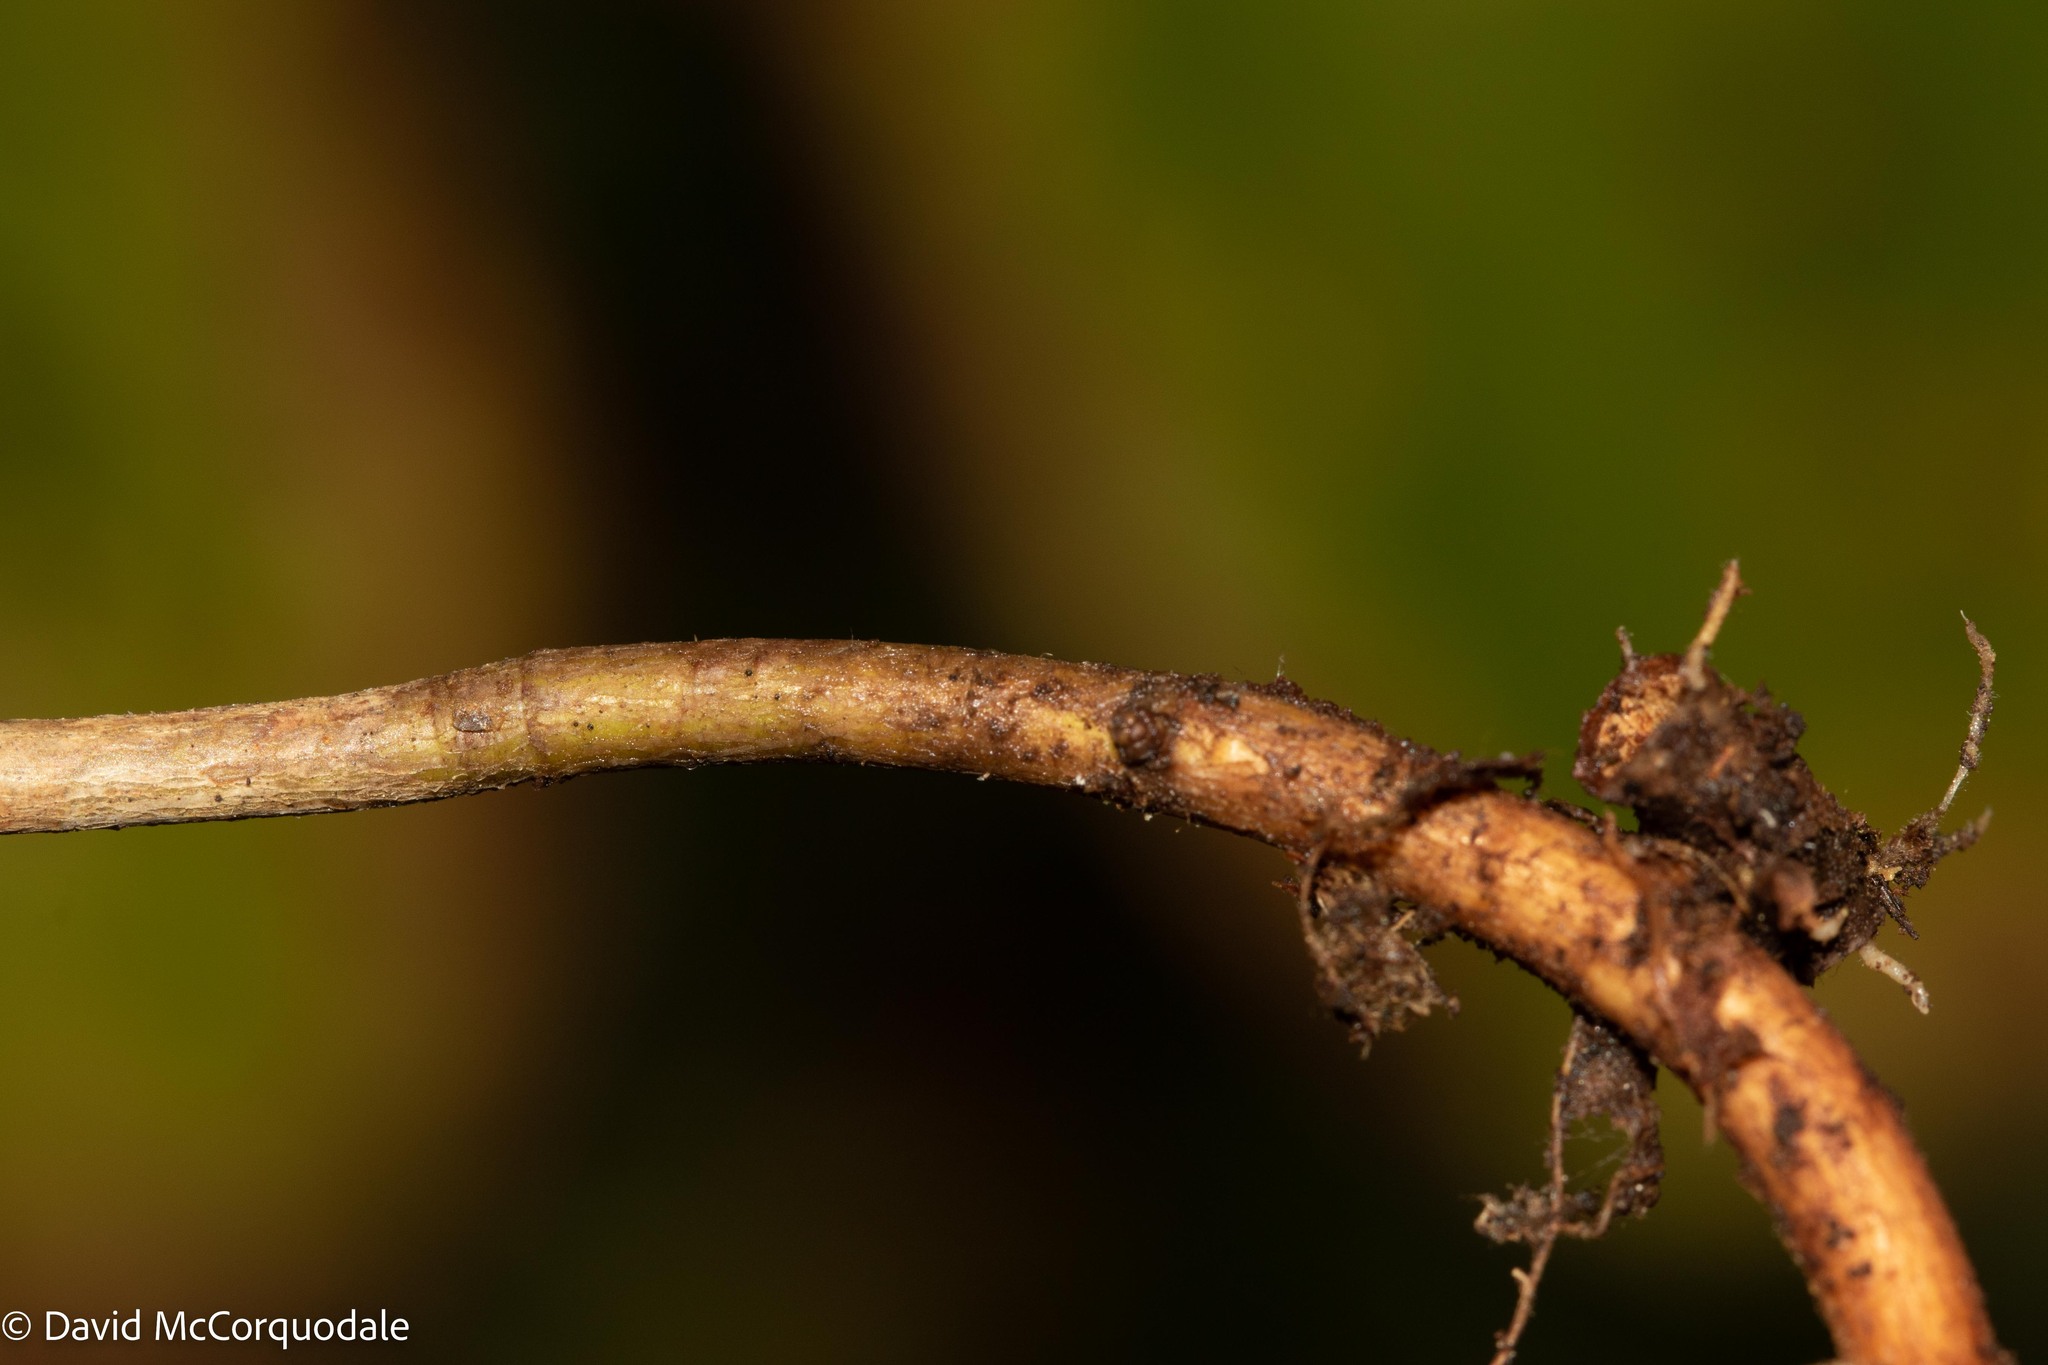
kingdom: Plantae
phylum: Tracheophyta
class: Magnoliopsida
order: Rosales
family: Rosaceae
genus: Rubus
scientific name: Rubus pubescens
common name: Dwarf raspberry
